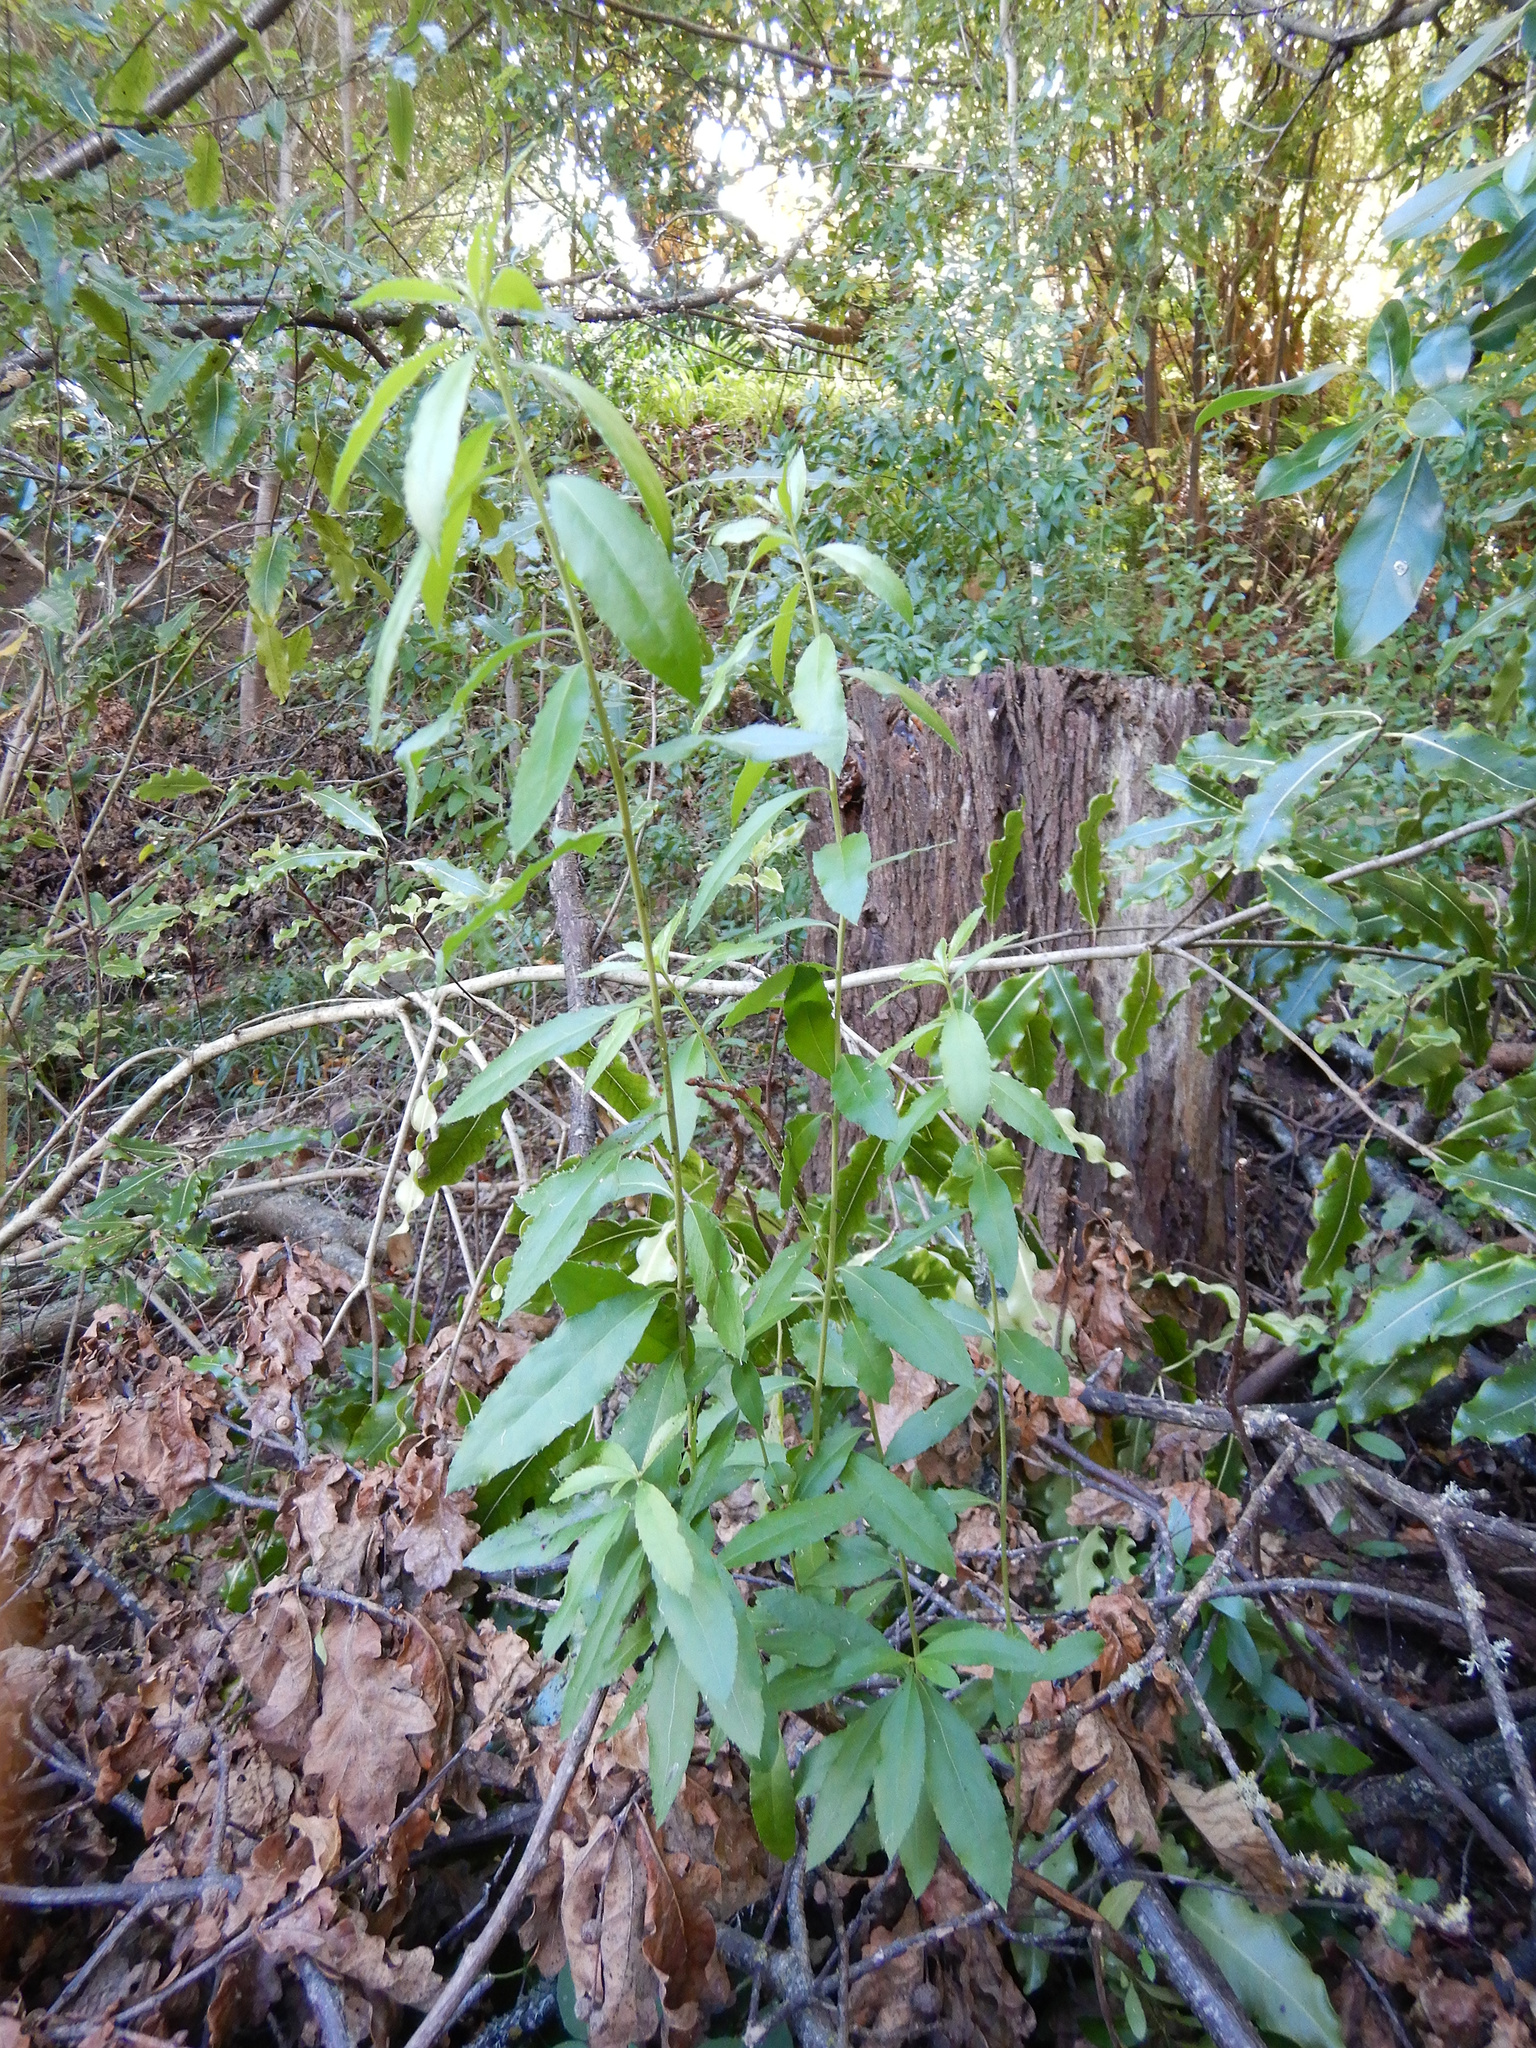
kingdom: Plantae
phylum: Tracheophyta
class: Magnoliopsida
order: Malpighiales
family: Violaceae
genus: Melicytus
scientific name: Melicytus ramiflorus
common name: Mahoe
